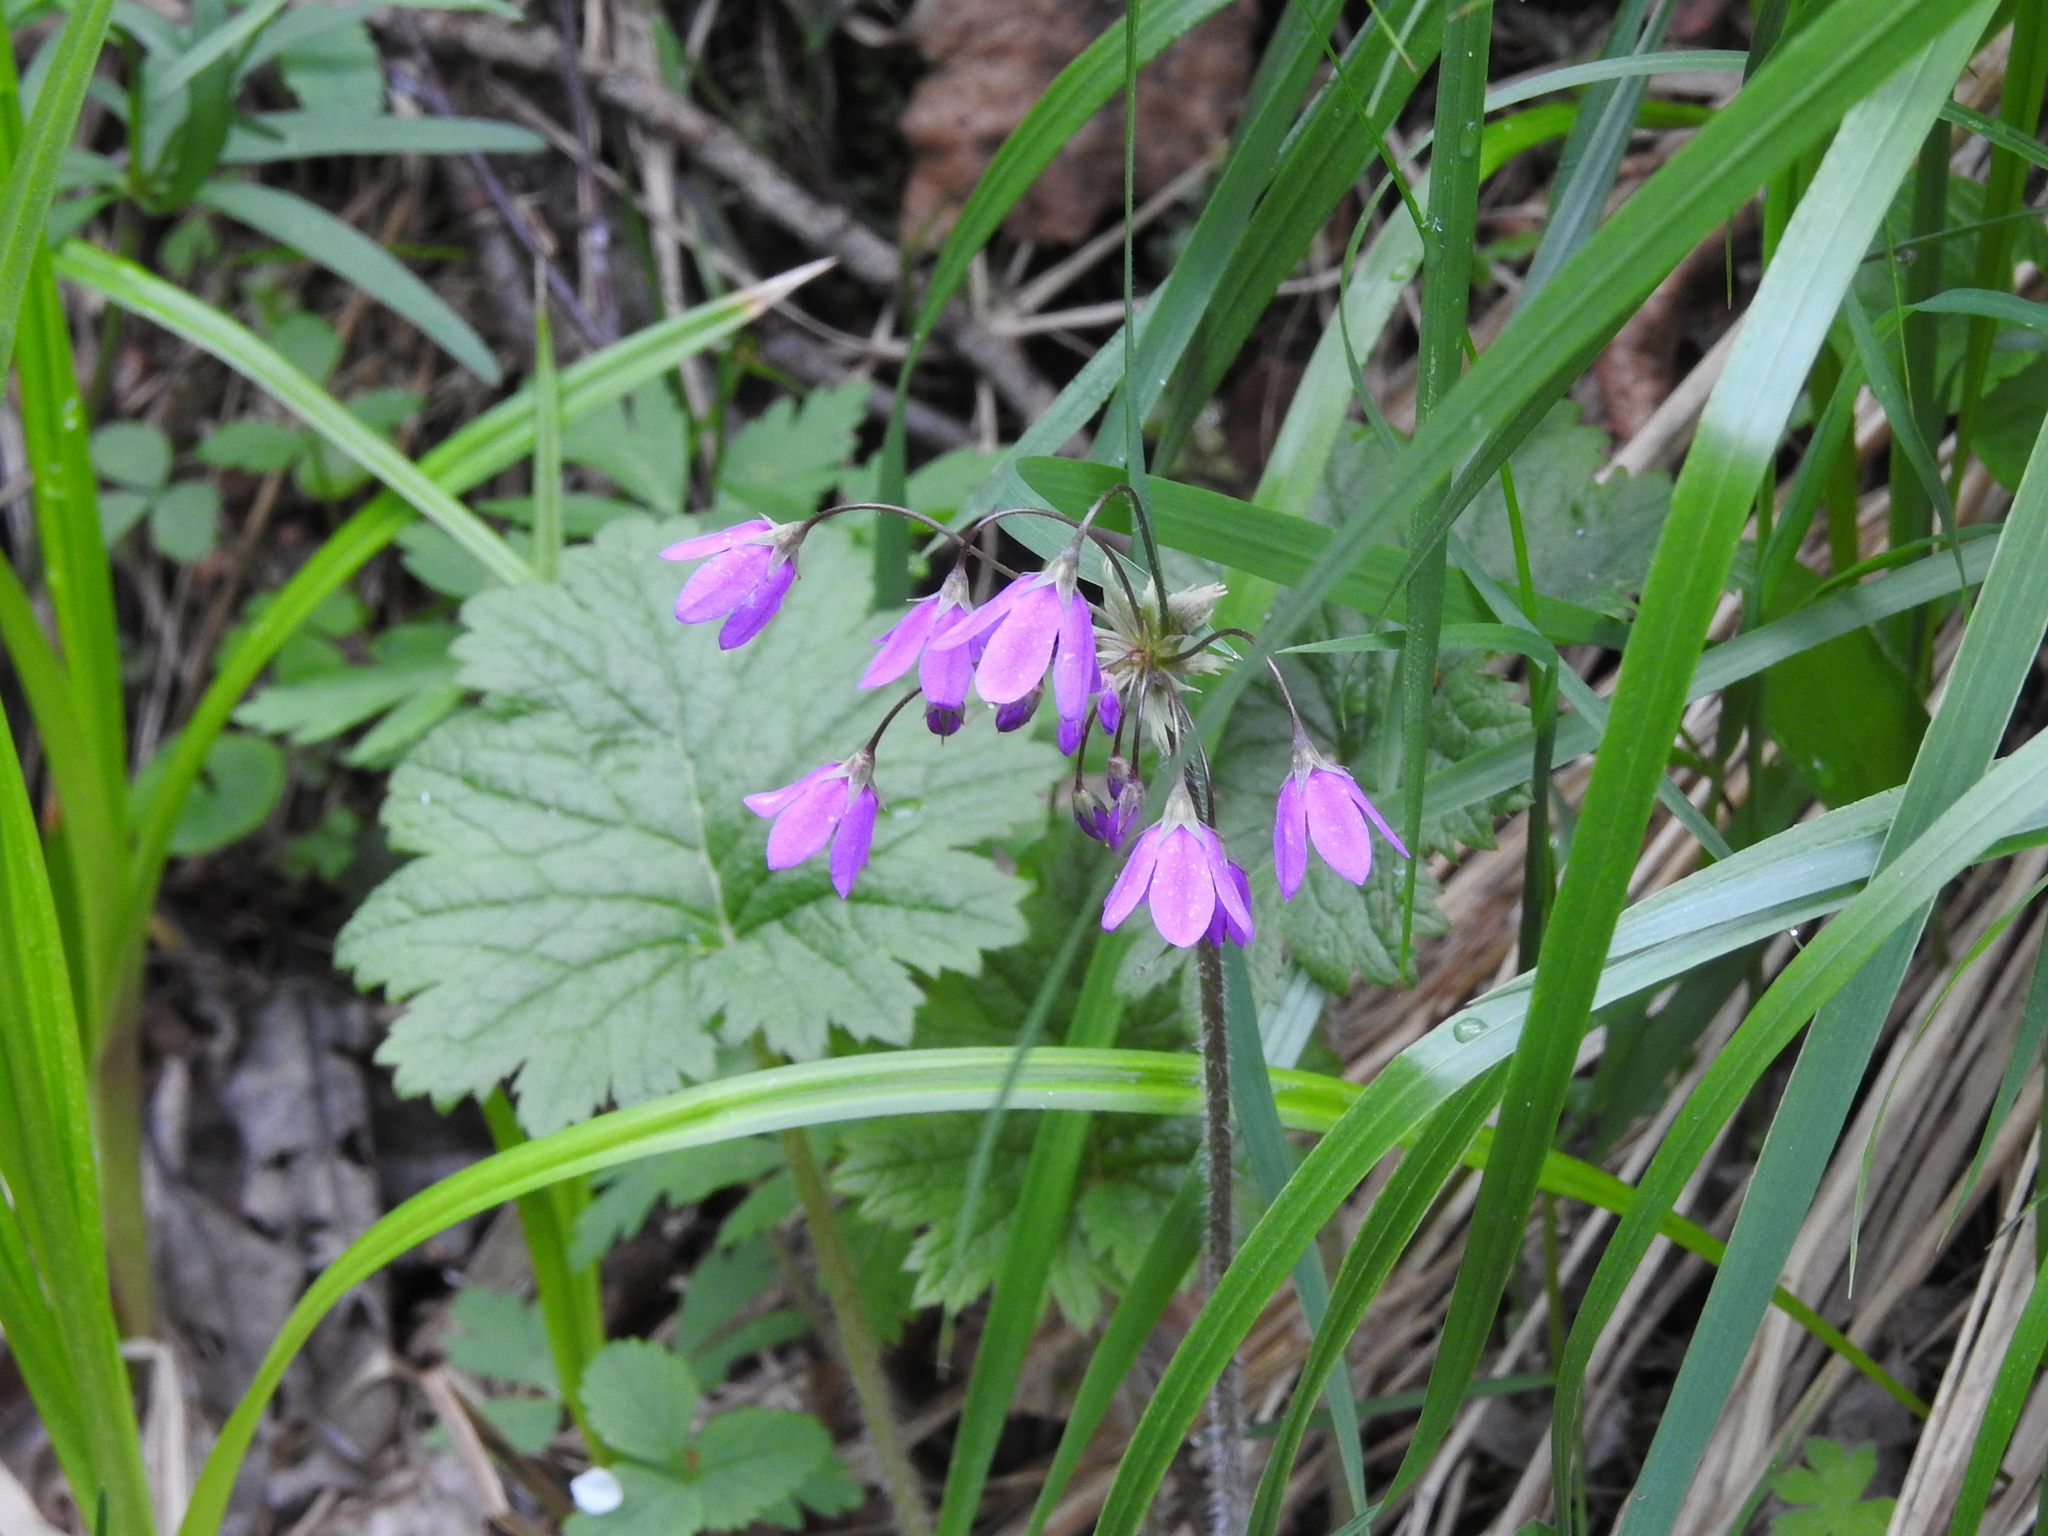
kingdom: Plantae
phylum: Tracheophyta
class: Magnoliopsida
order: Ericales
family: Primulaceae
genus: Primula
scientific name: Primula matthioli
